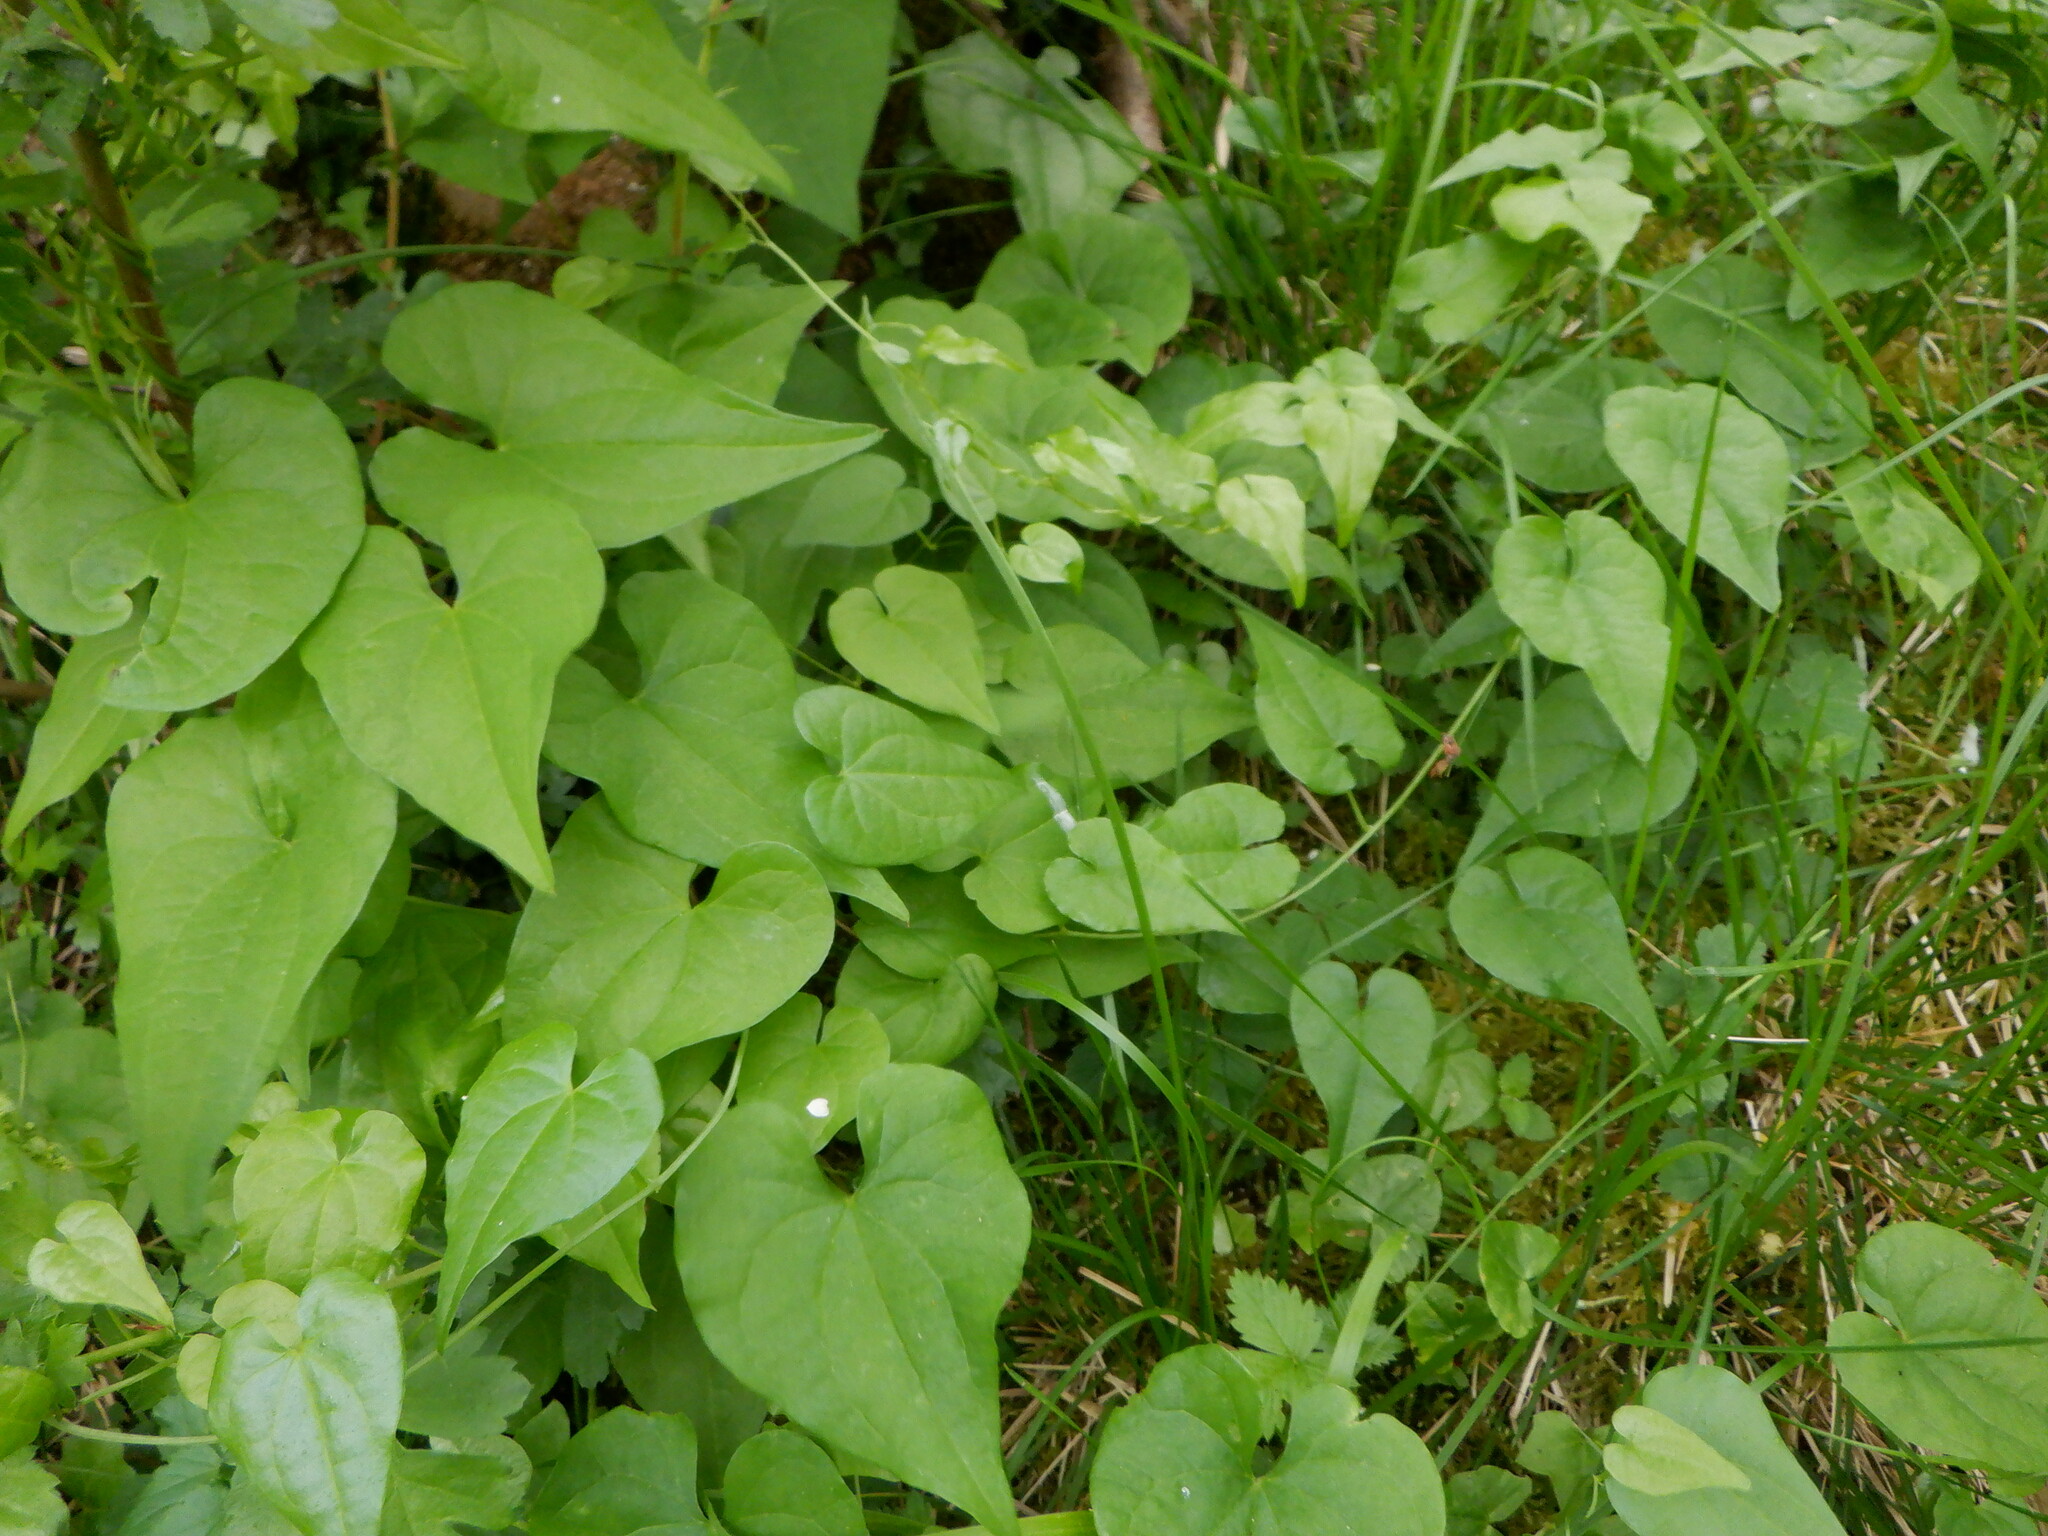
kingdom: Plantae
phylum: Tracheophyta
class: Liliopsida
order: Dioscoreales
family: Dioscoreaceae
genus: Dioscorea
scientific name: Dioscorea communis
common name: Black-bindweed
